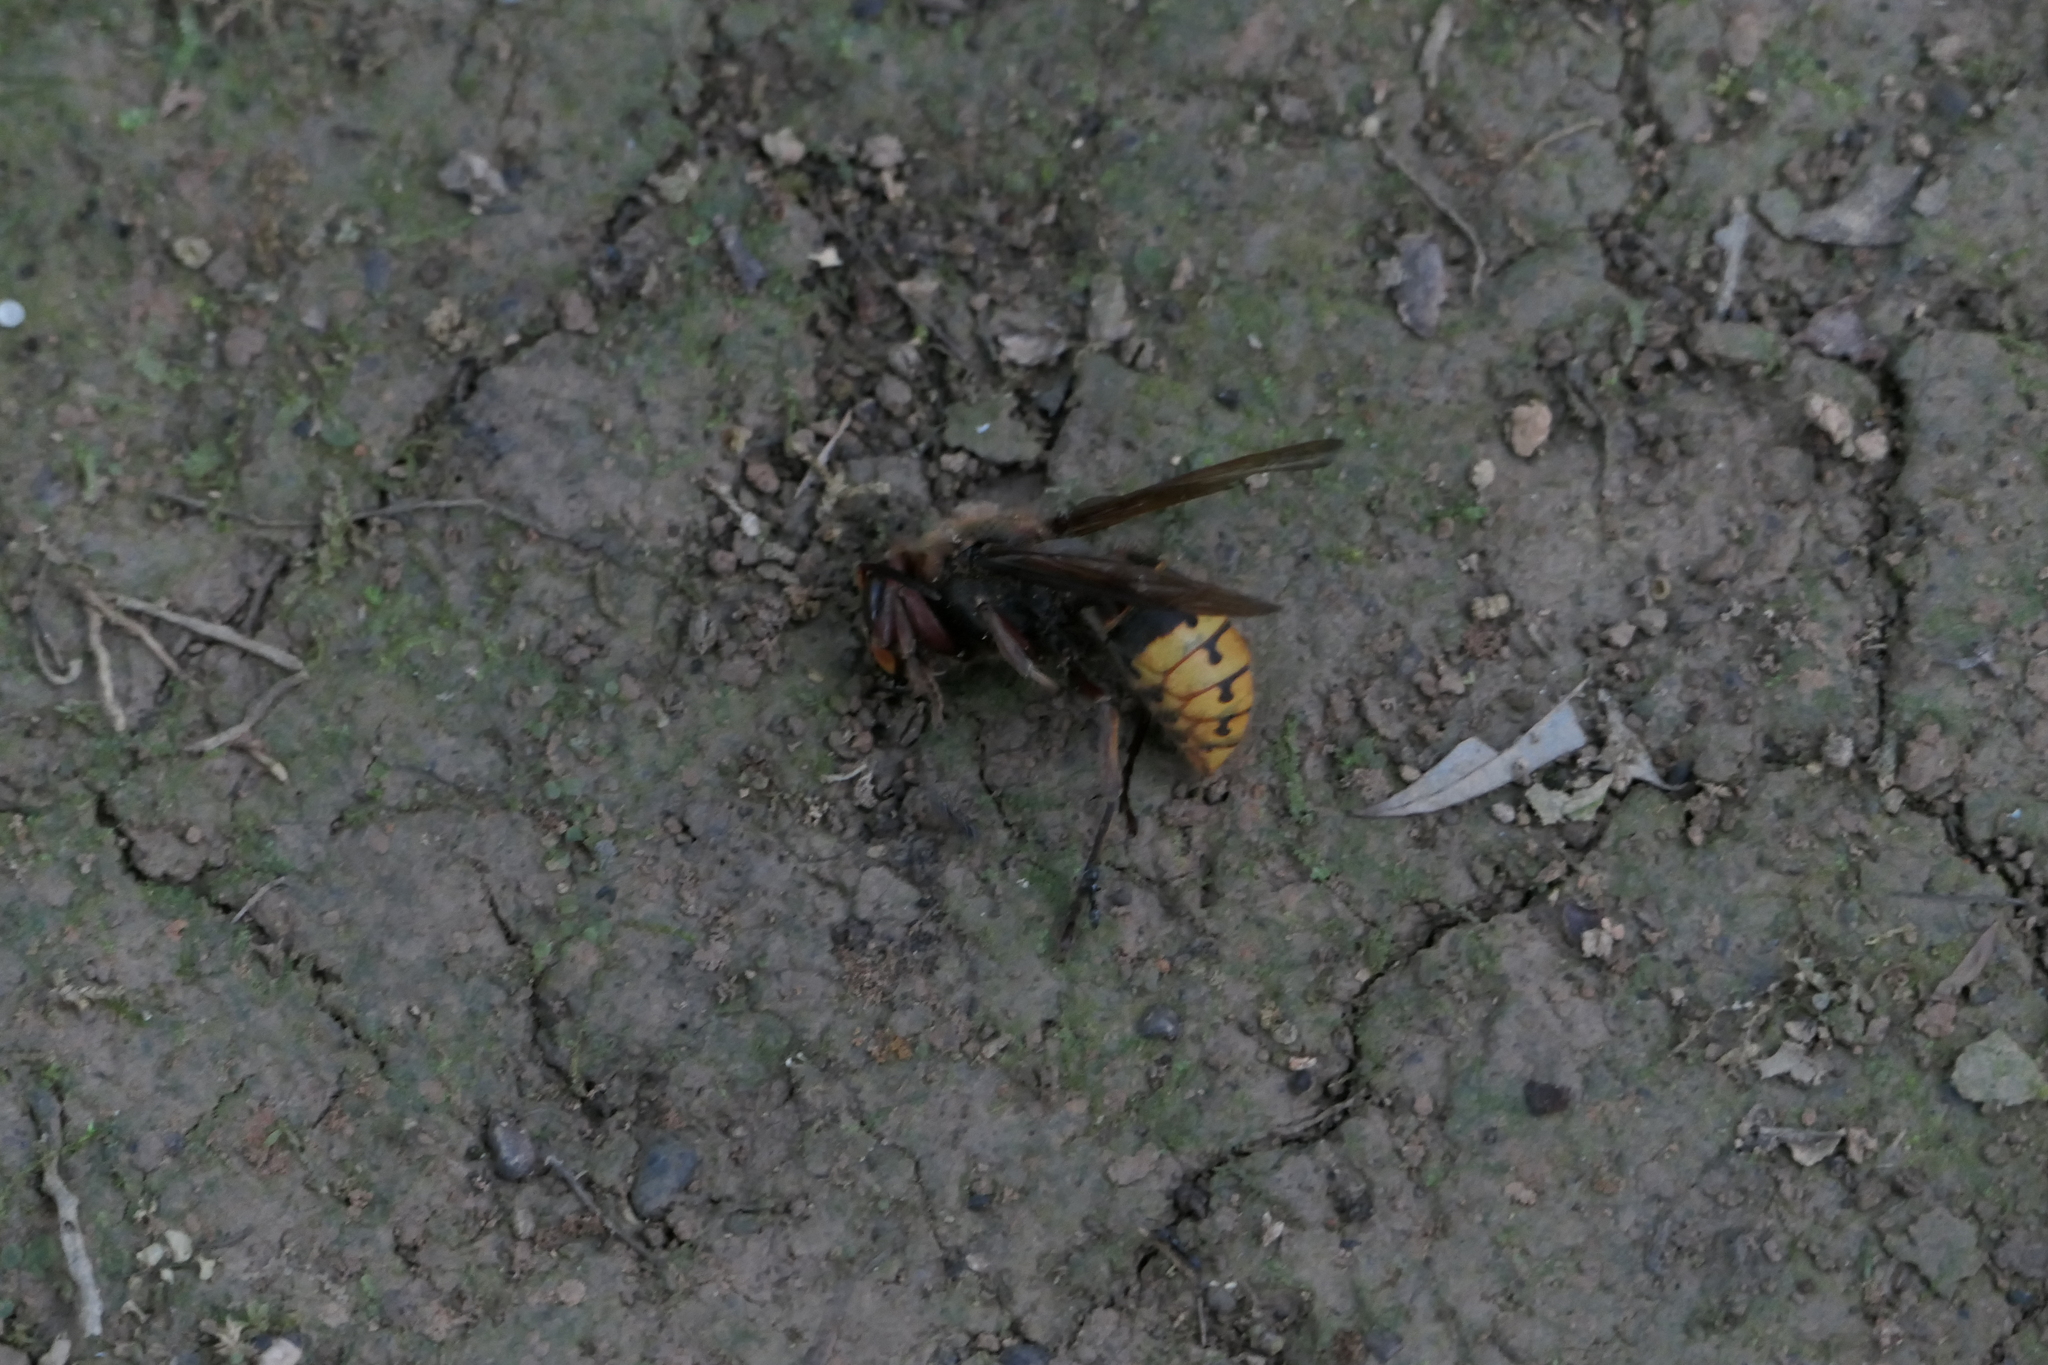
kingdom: Animalia
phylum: Arthropoda
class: Insecta
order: Hymenoptera
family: Vespidae
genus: Vespa
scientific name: Vespa crabro
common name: Hornet
